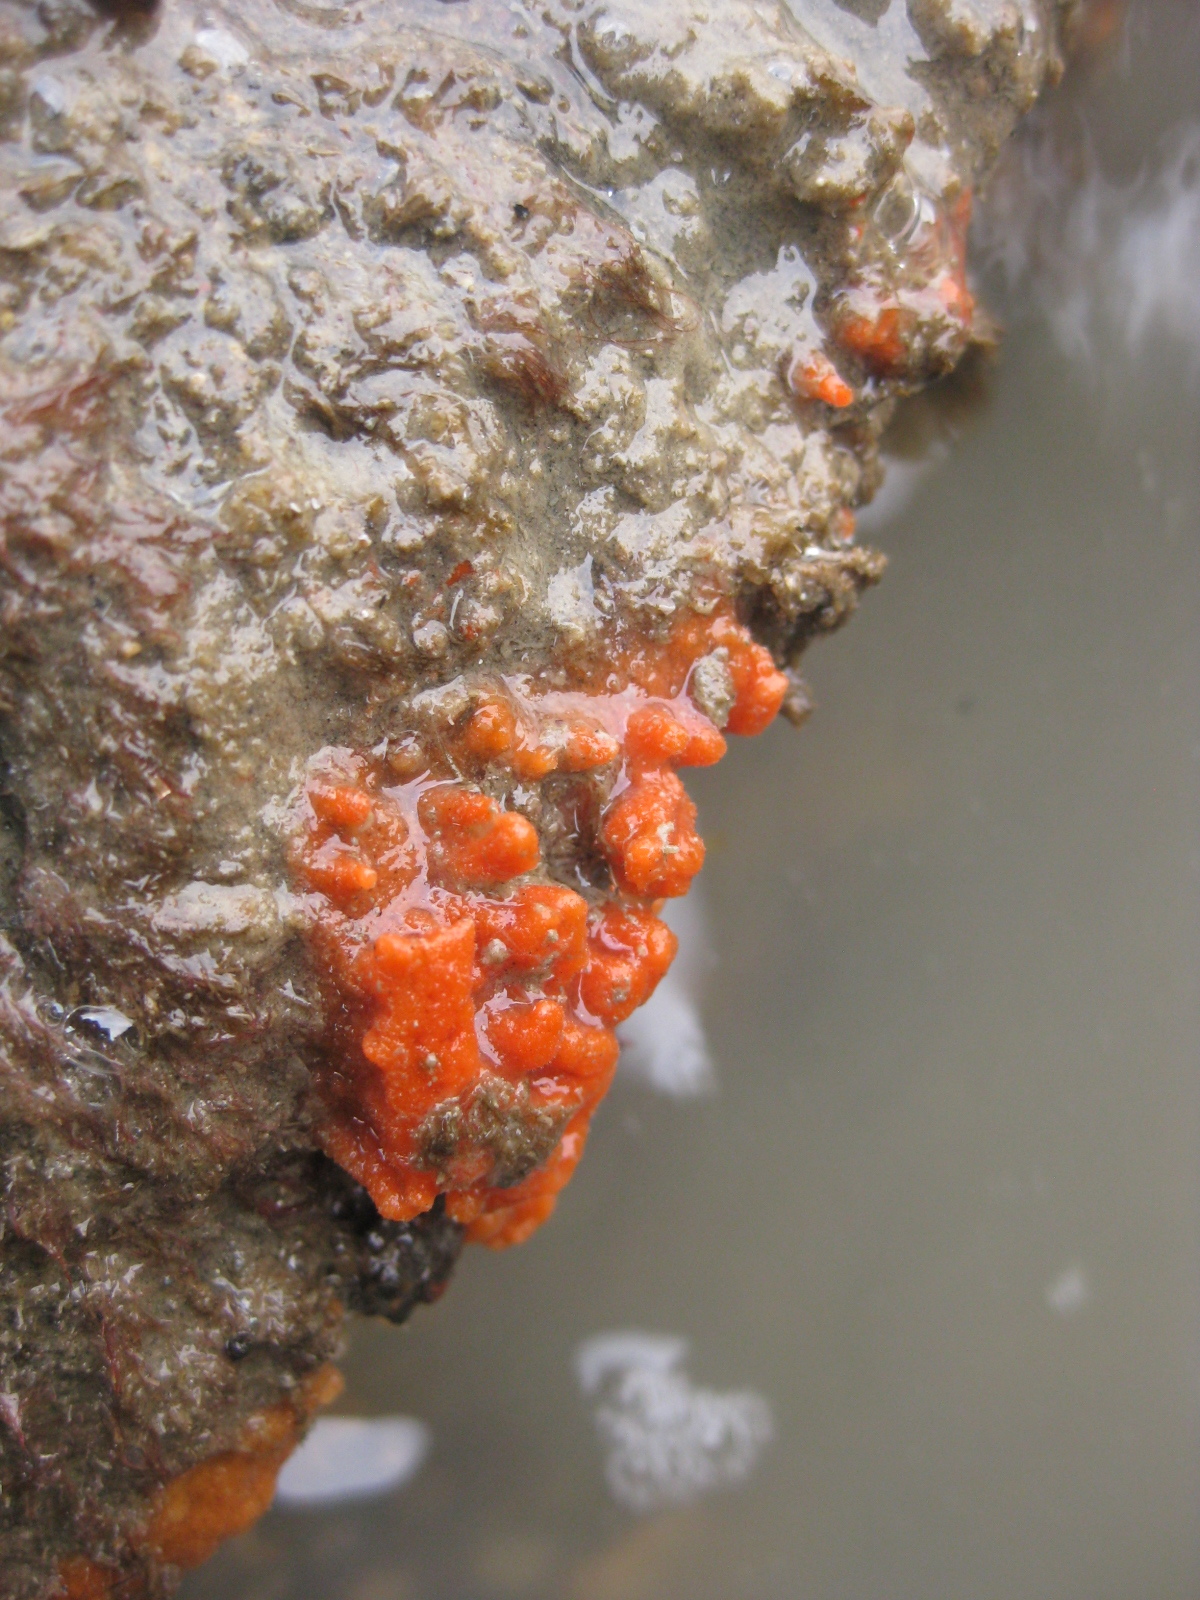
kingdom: Animalia
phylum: Porifera
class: Demospongiae
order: Poecilosclerida
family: Crellidae
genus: Crella
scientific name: Crella incrustans
